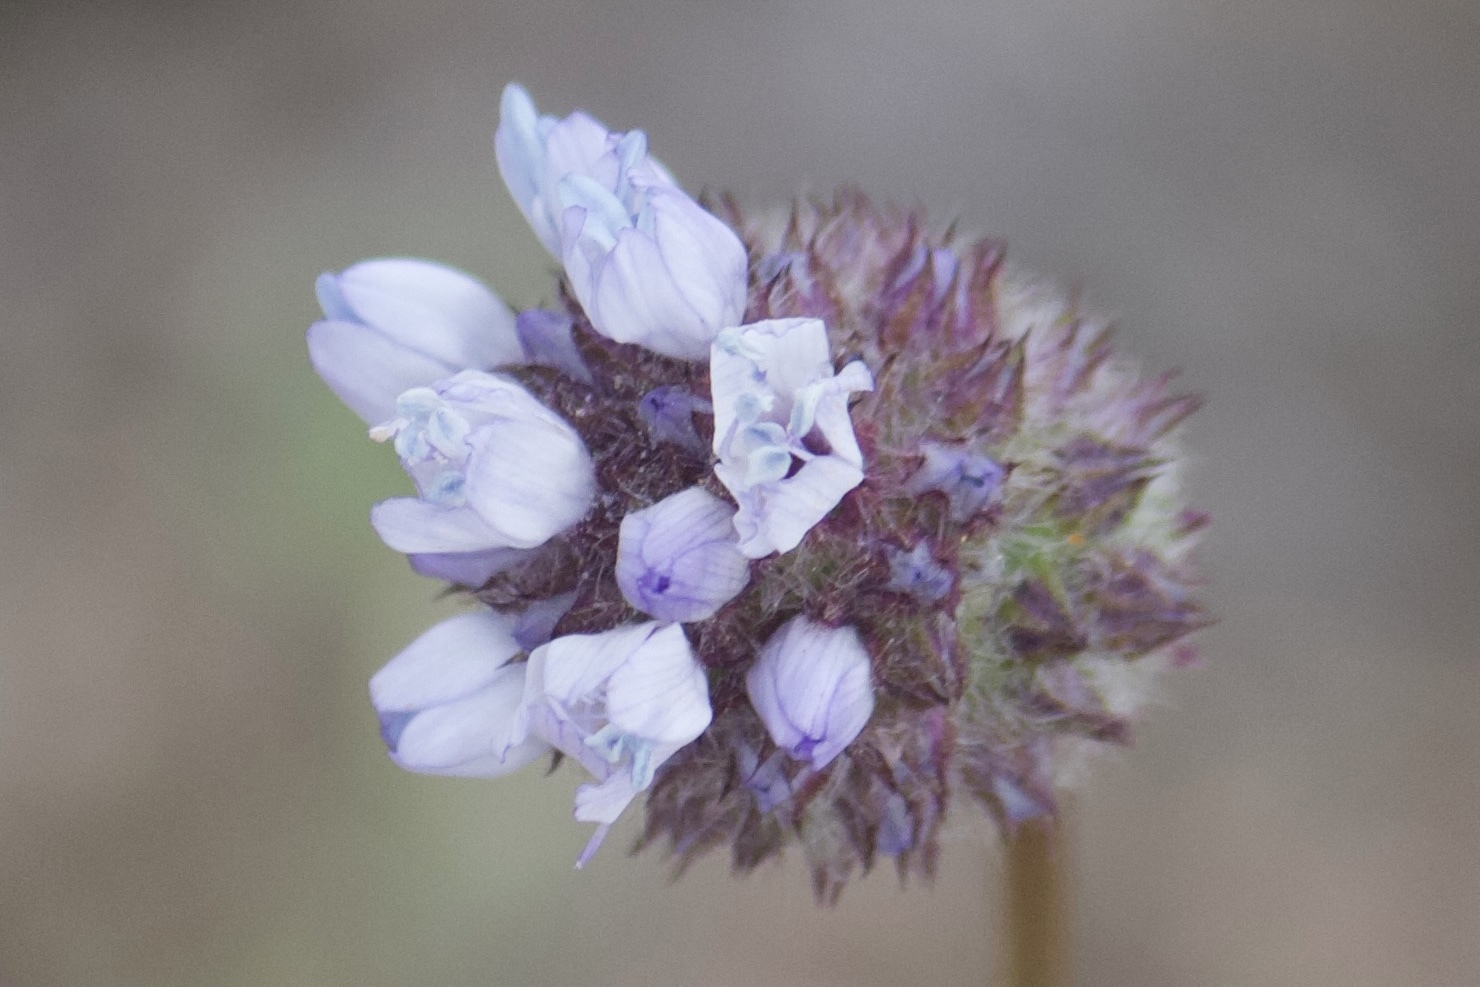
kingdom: Plantae
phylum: Tracheophyta
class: Magnoliopsida
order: Ericales
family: Polemoniaceae
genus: Gilia
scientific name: Gilia capitata
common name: Bluehead gilia
